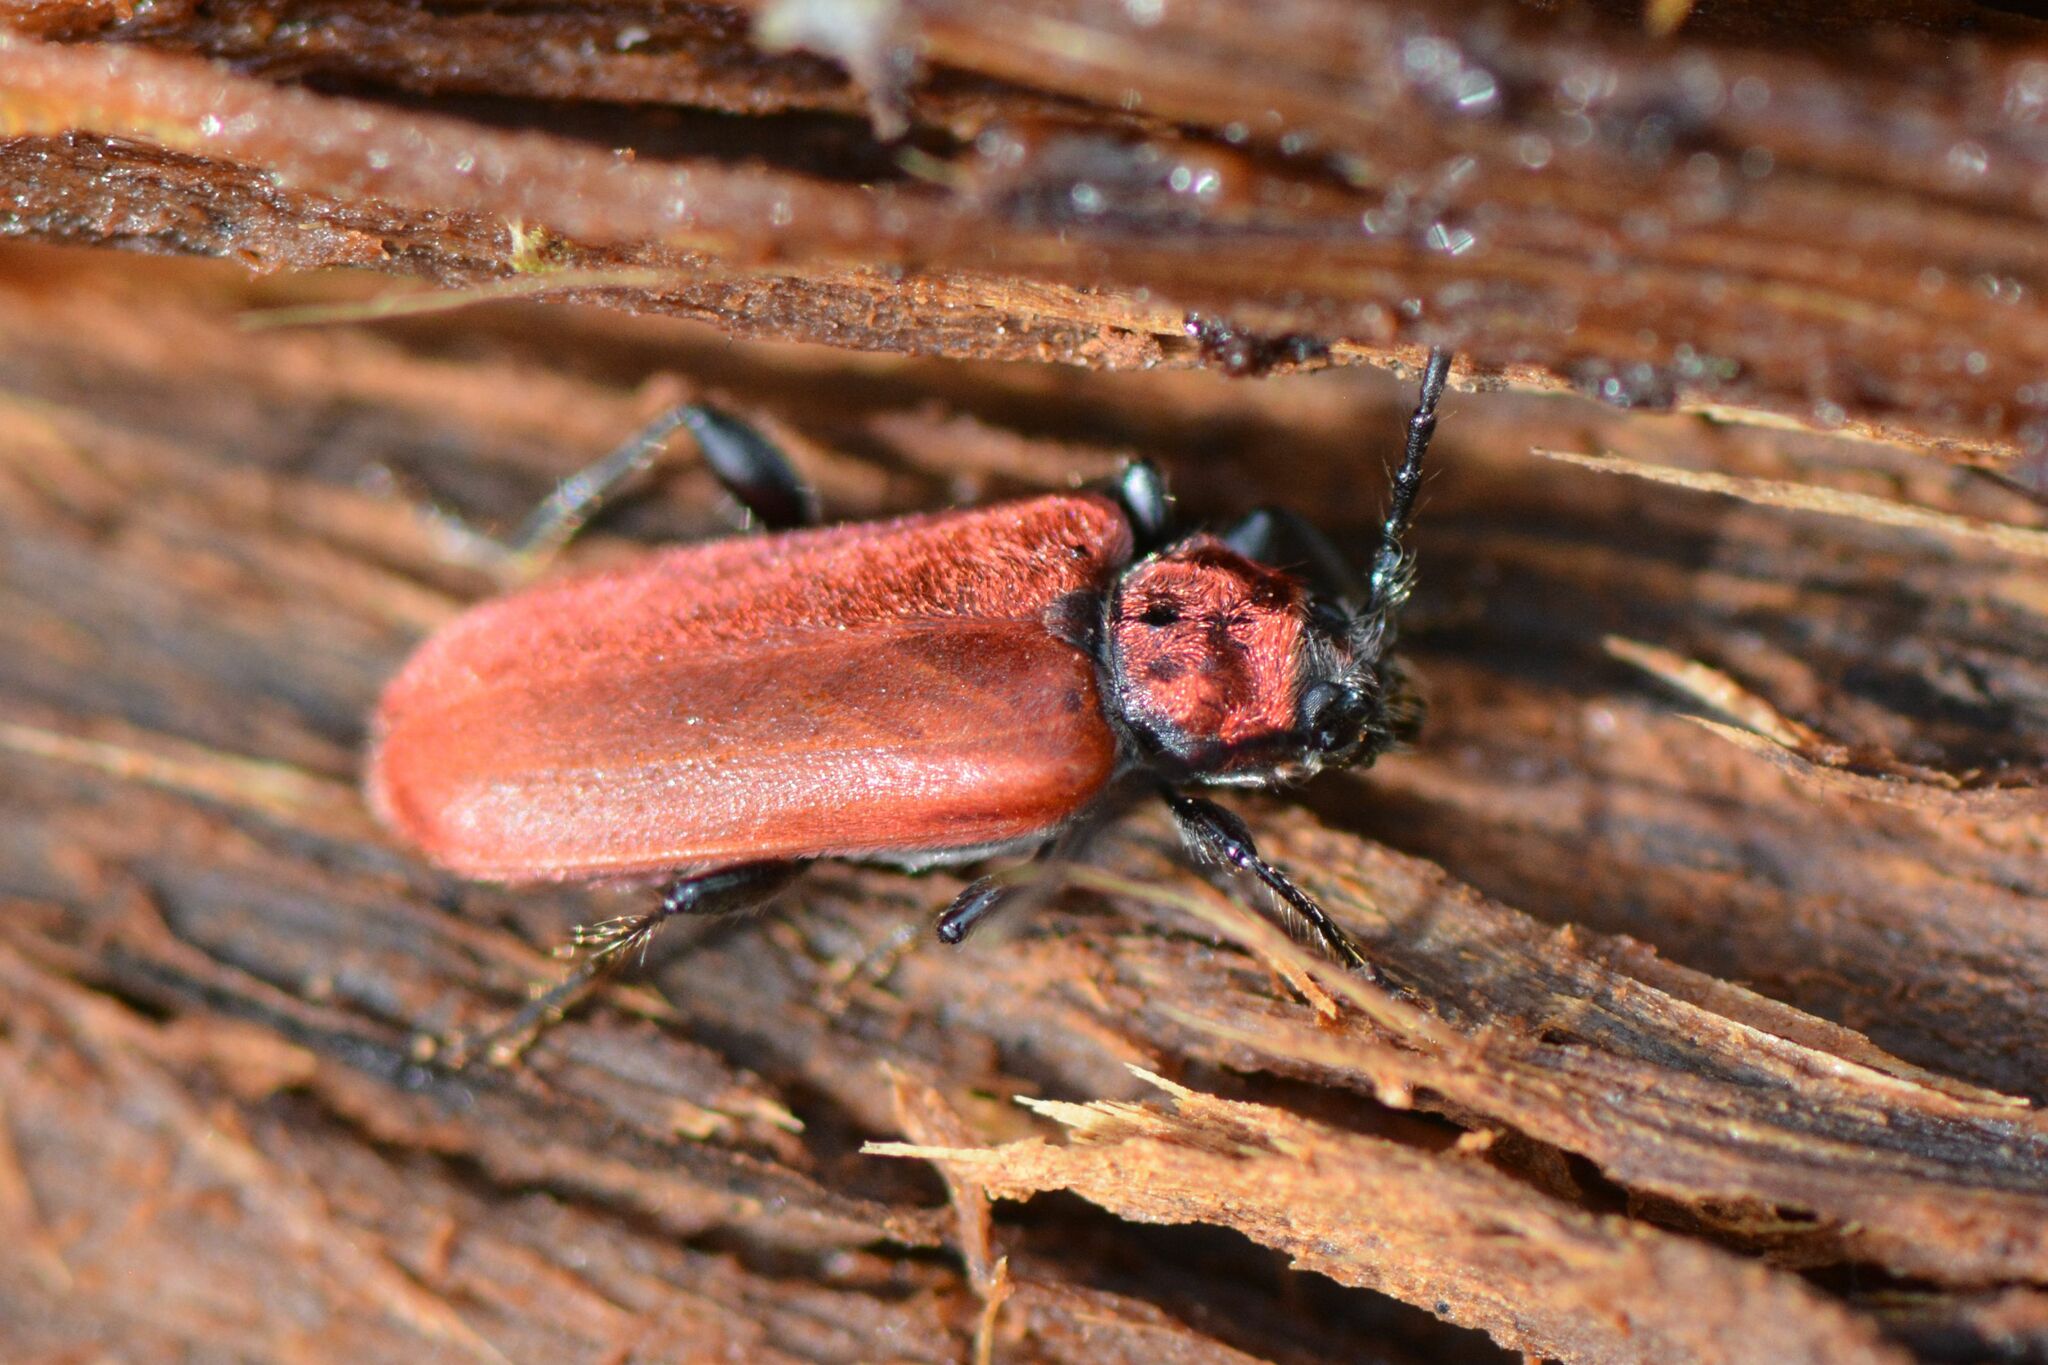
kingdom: Animalia
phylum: Arthropoda
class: Insecta
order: Coleoptera
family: Cerambycidae
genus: Pyrrhidium
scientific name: Pyrrhidium sanguineum
